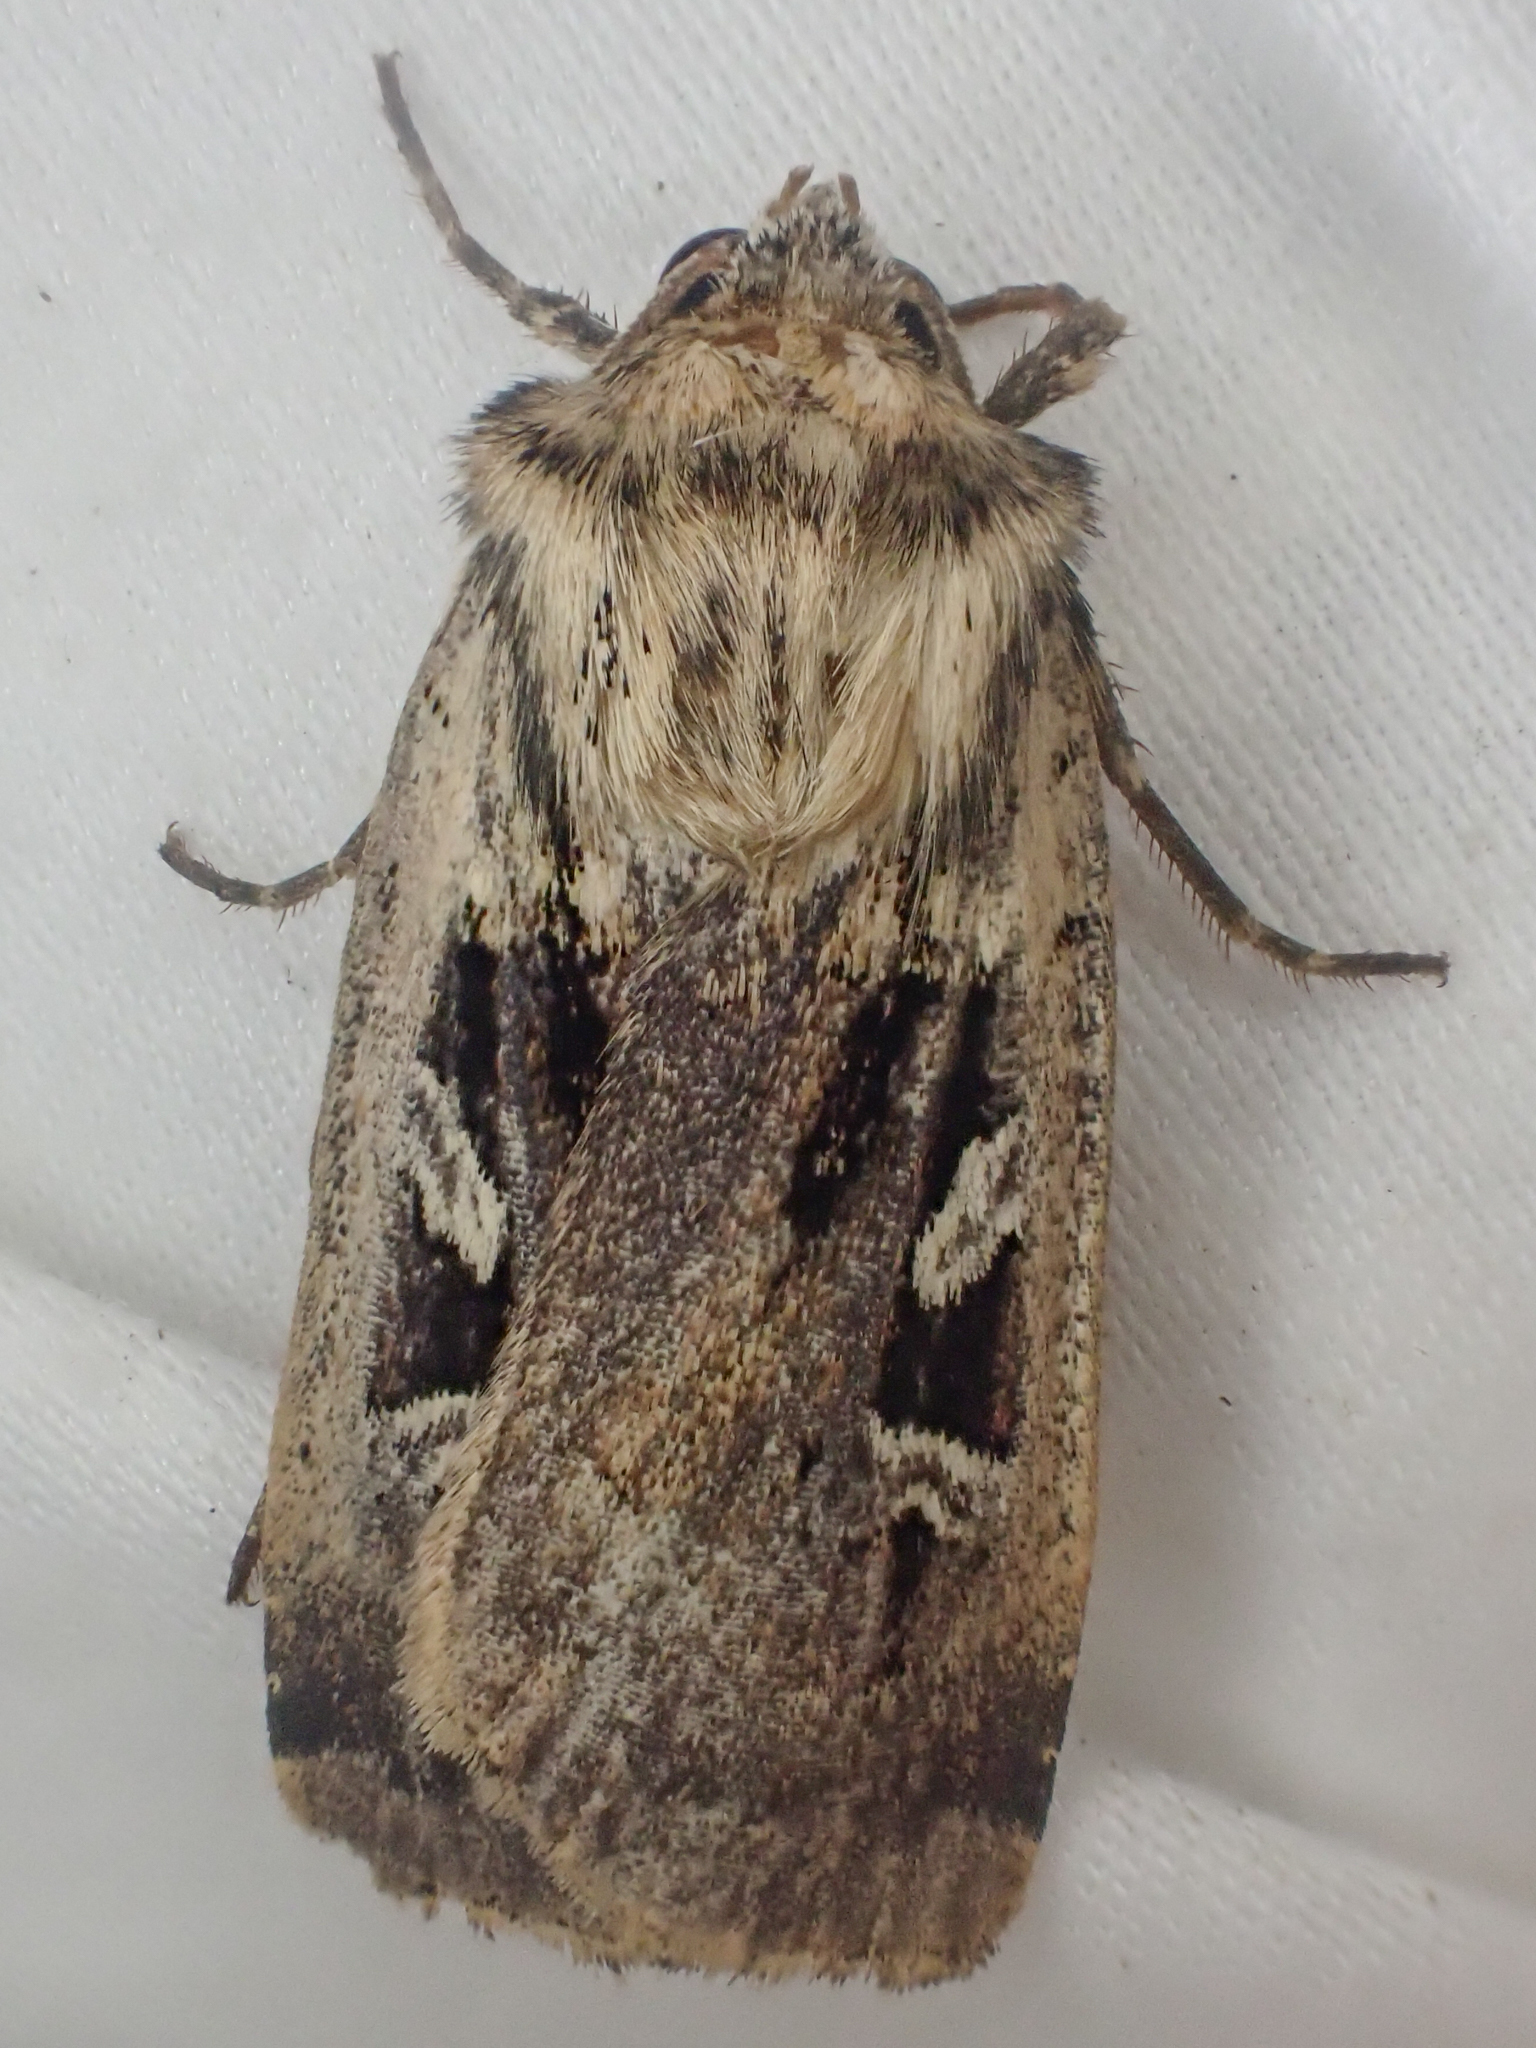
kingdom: Animalia
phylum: Arthropoda
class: Insecta
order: Lepidoptera
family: Noctuidae
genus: Pseudohermonassa
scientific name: Pseudohermonassa flavotincta
